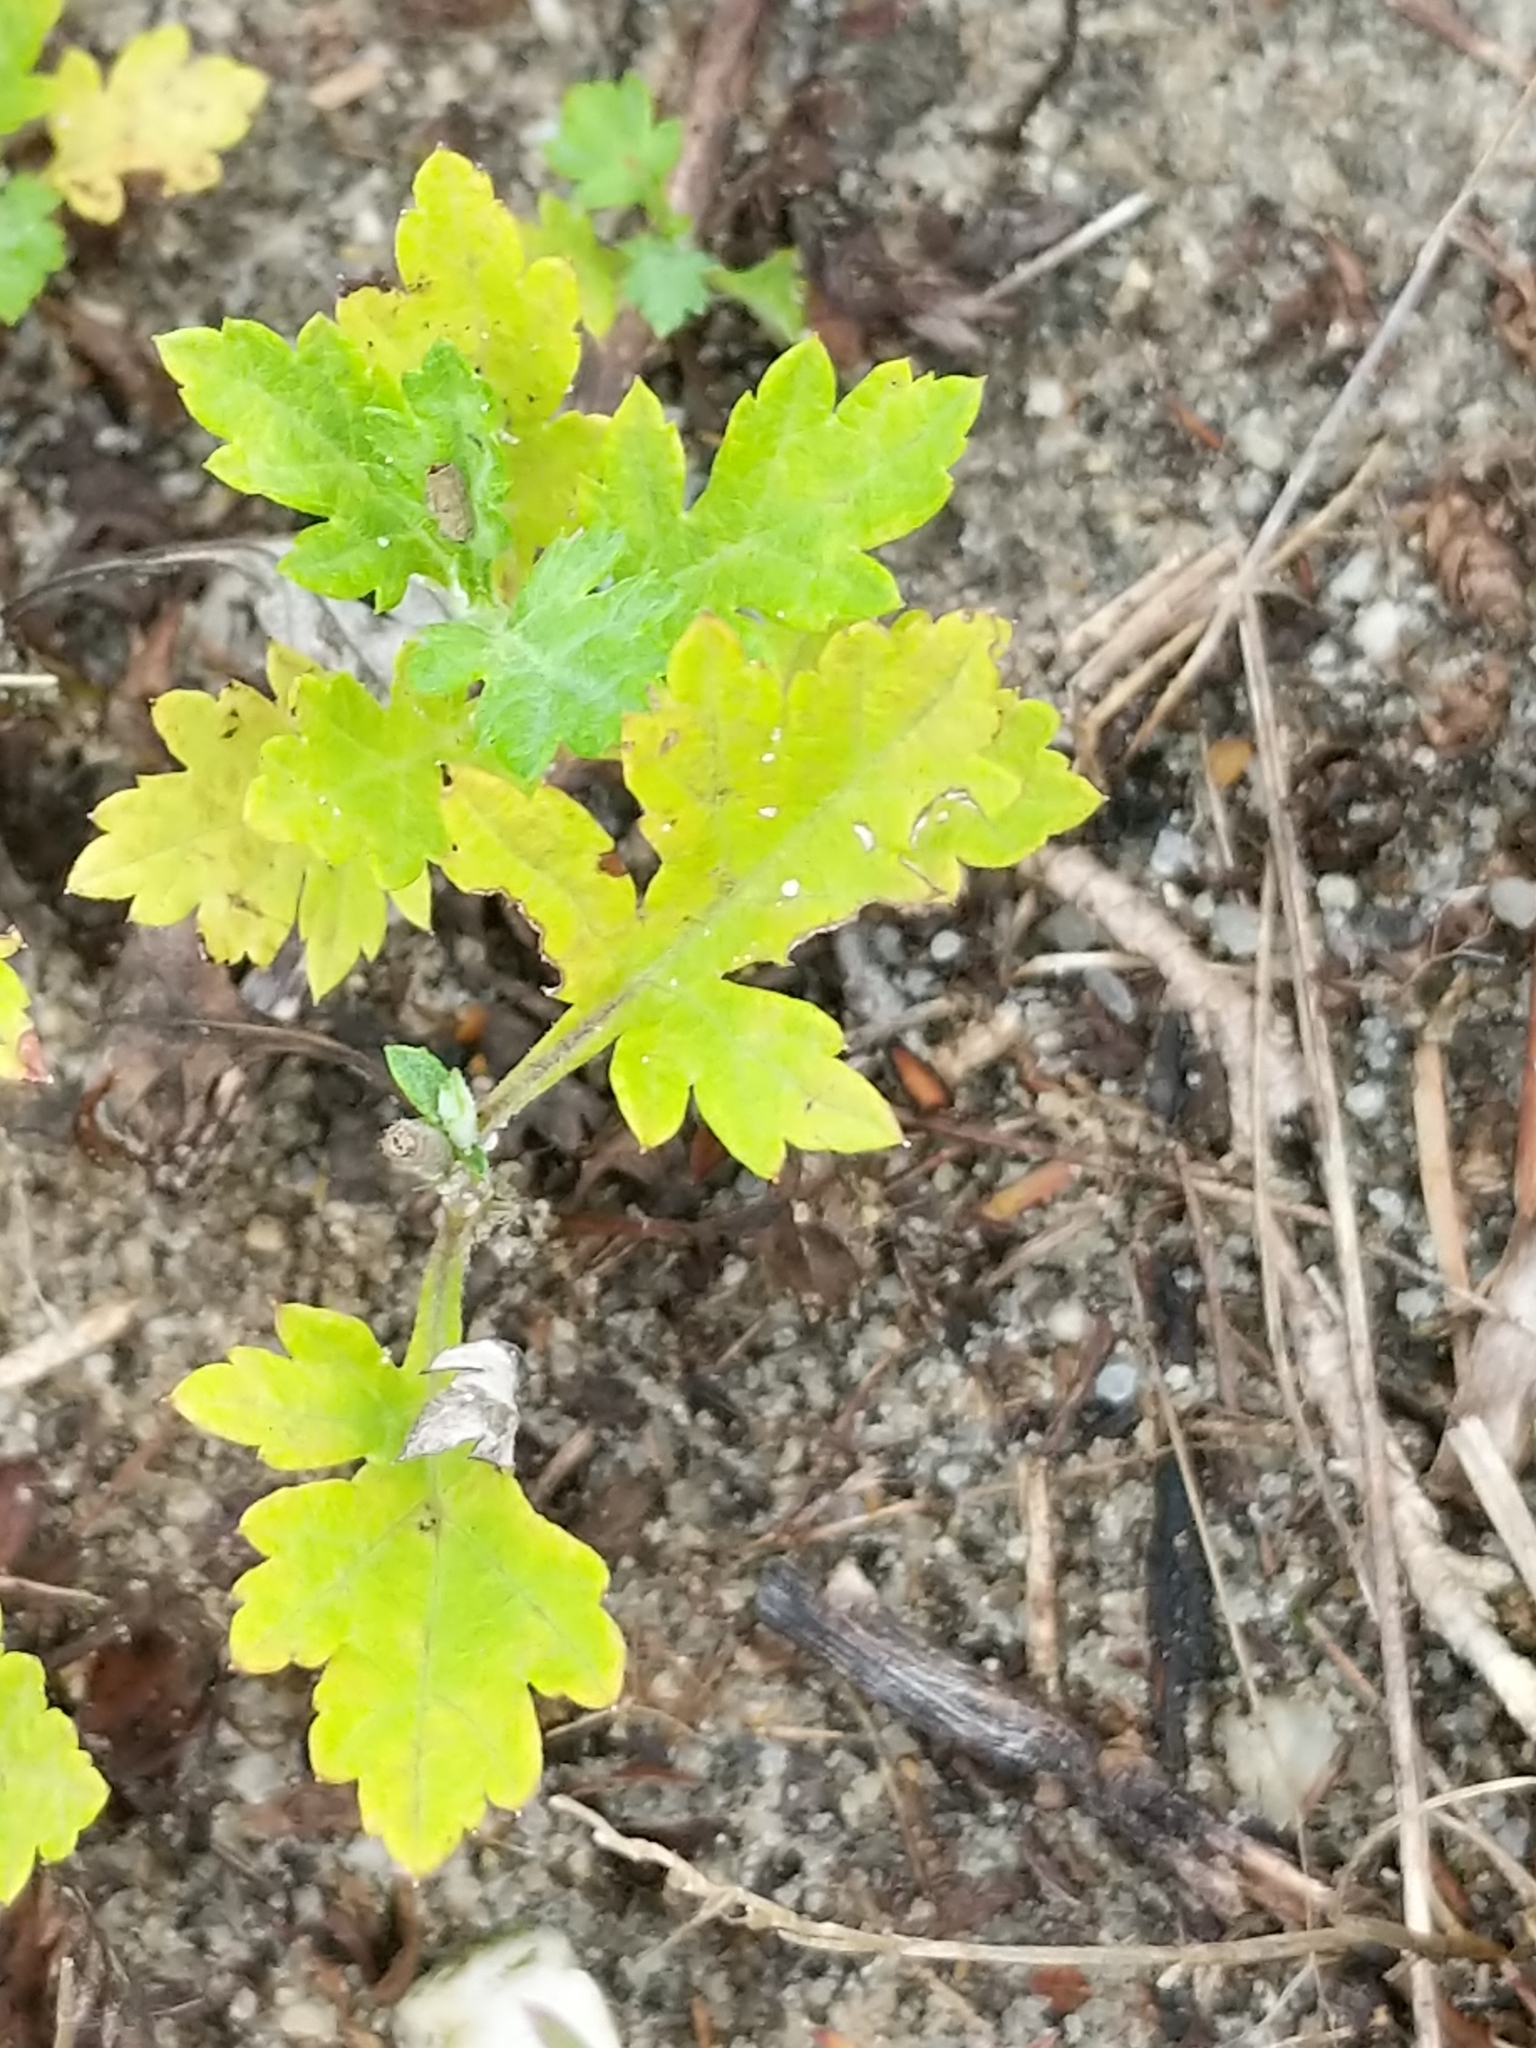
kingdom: Plantae
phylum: Tracheophyta
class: Magnoliopsida
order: Asterales
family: Asteraceae
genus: Artemisia
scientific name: Artemisia vulgaris
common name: Mugwort
